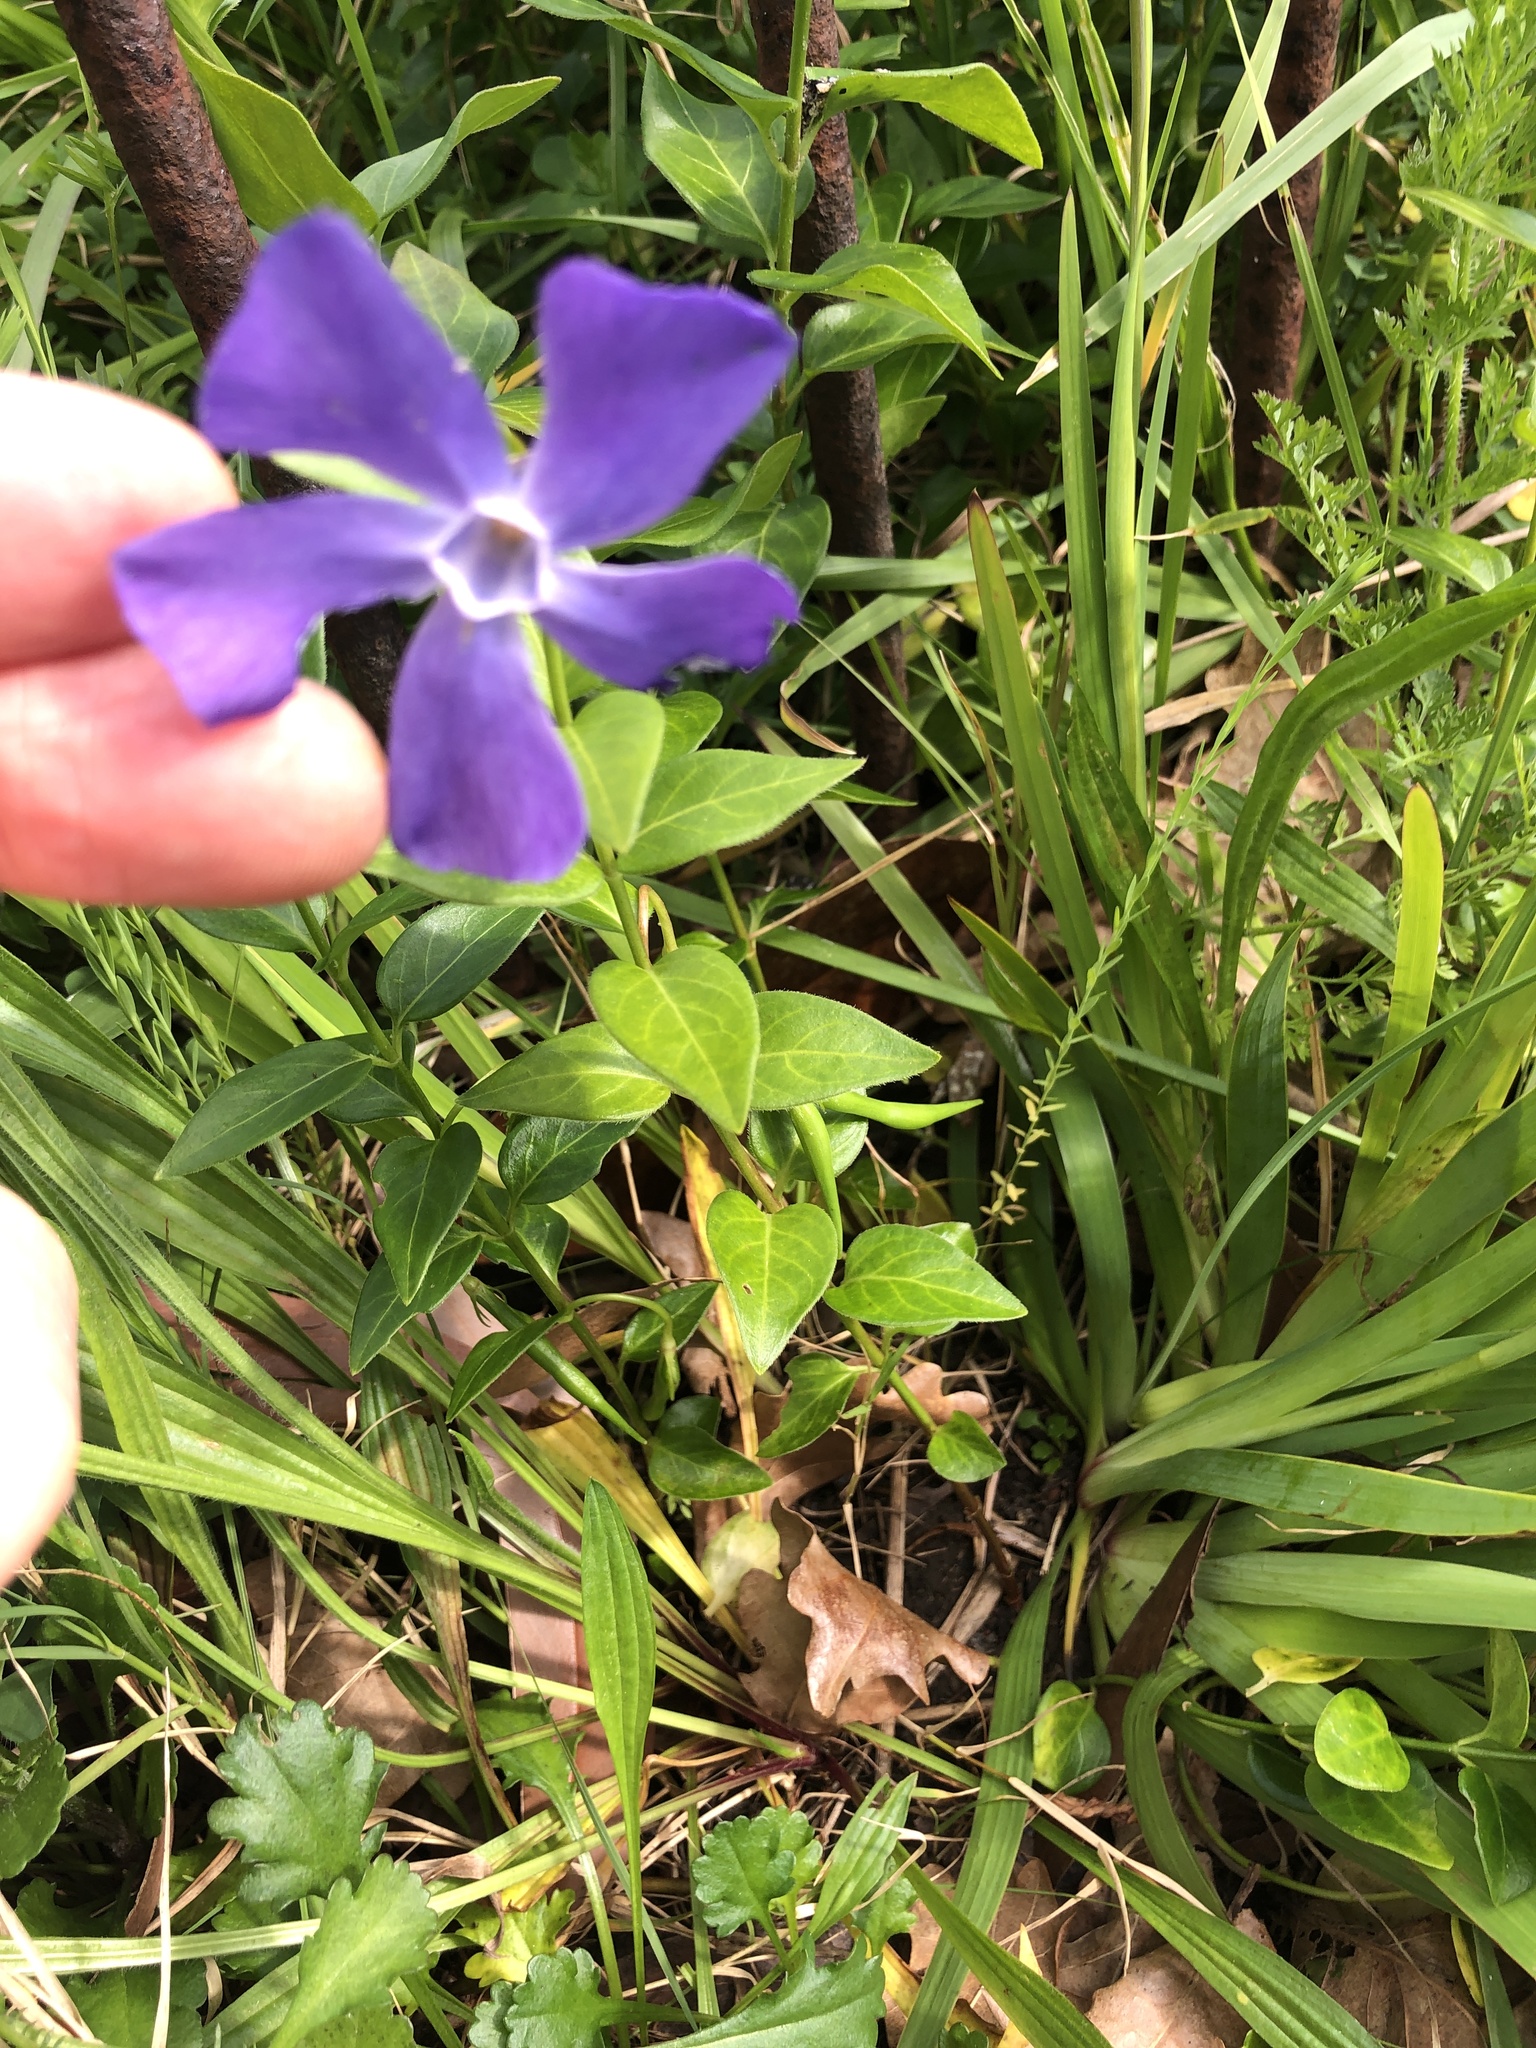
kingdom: Plantae
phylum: Tracheophyta
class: Magnoliopsida
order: Gentianales
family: Apocynaceae
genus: Vinca
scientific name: Vinca major
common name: Greater periwinkle
